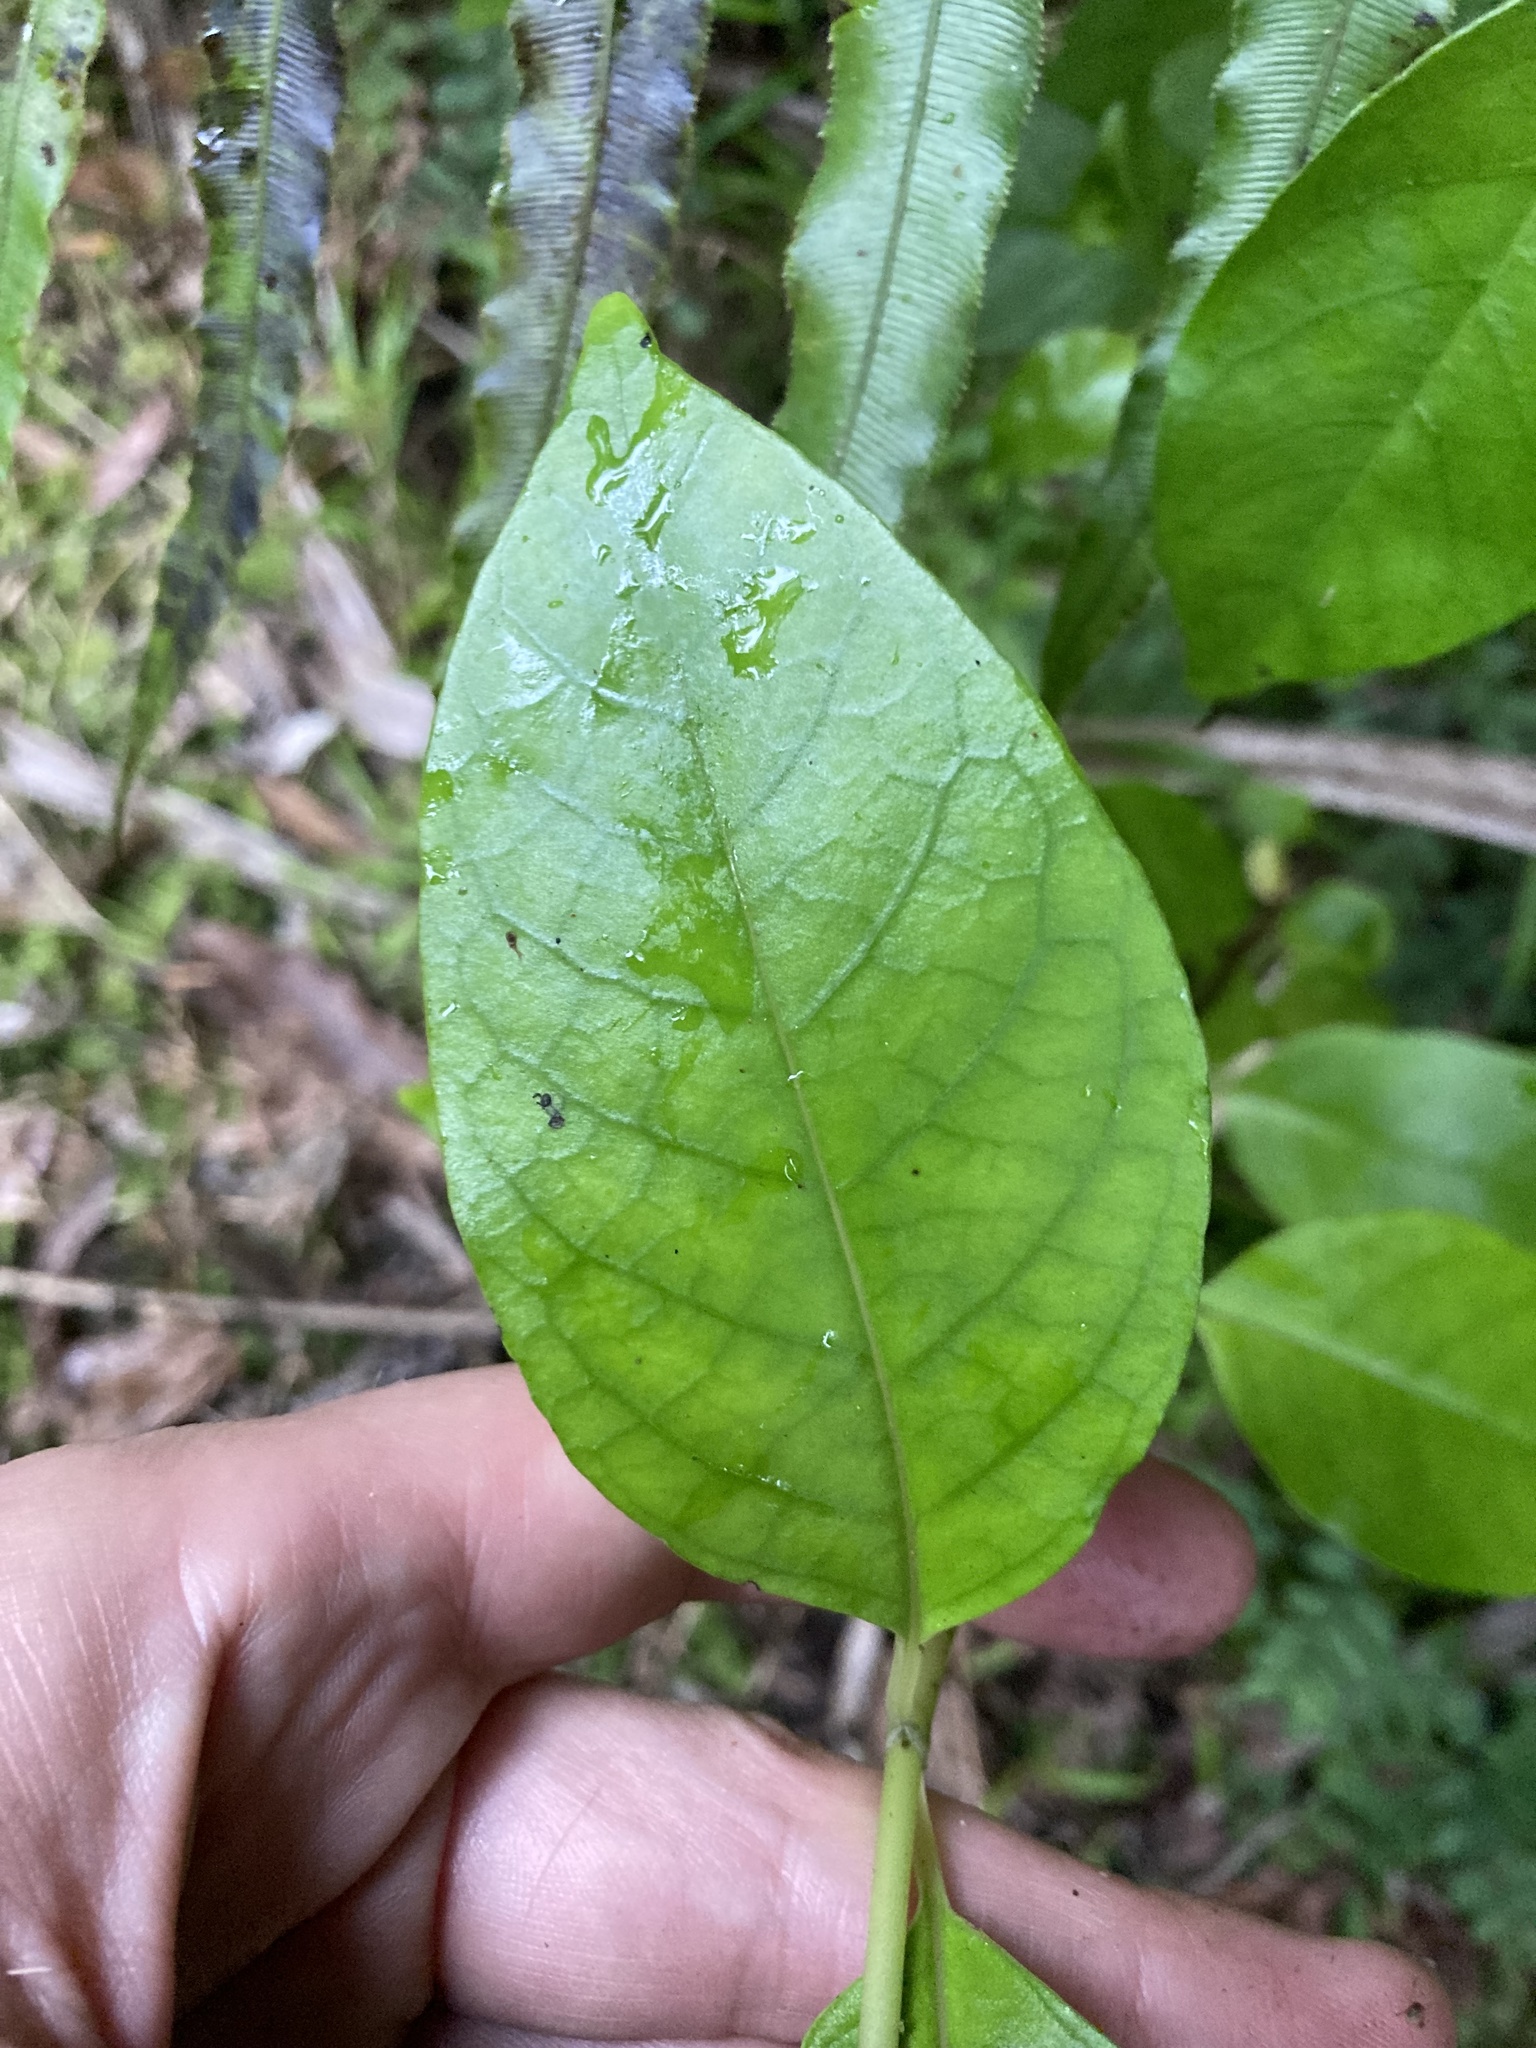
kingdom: Plantae
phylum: Tracheophyta
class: Magnoliopsida
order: Gentianales
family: Loganiaceae
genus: Geniostoma
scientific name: Geniostoma ligustrifolium
